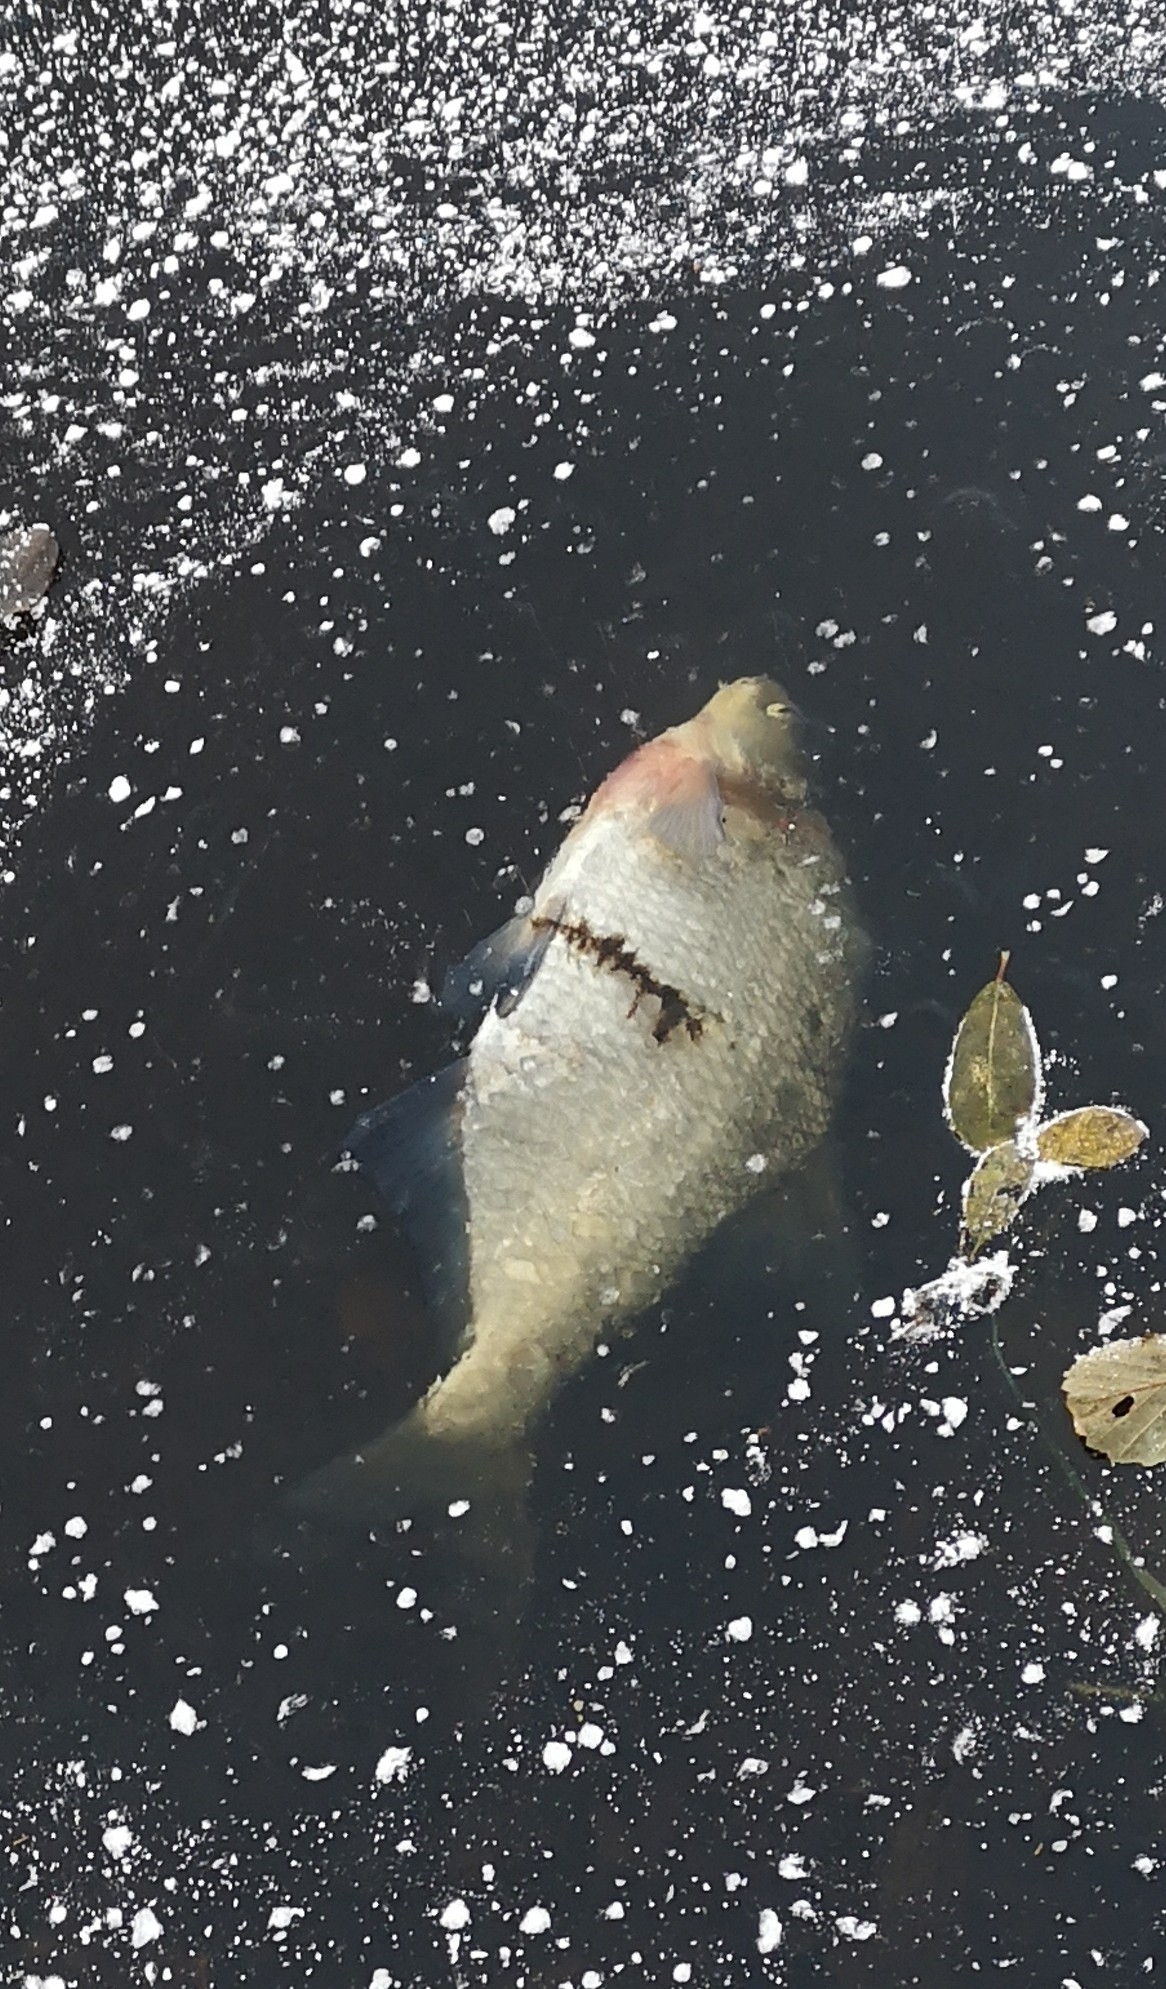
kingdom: Animalia
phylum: Chordata
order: Cypriniformes
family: Cyprinidae
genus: Abramis
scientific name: Abramis brama
